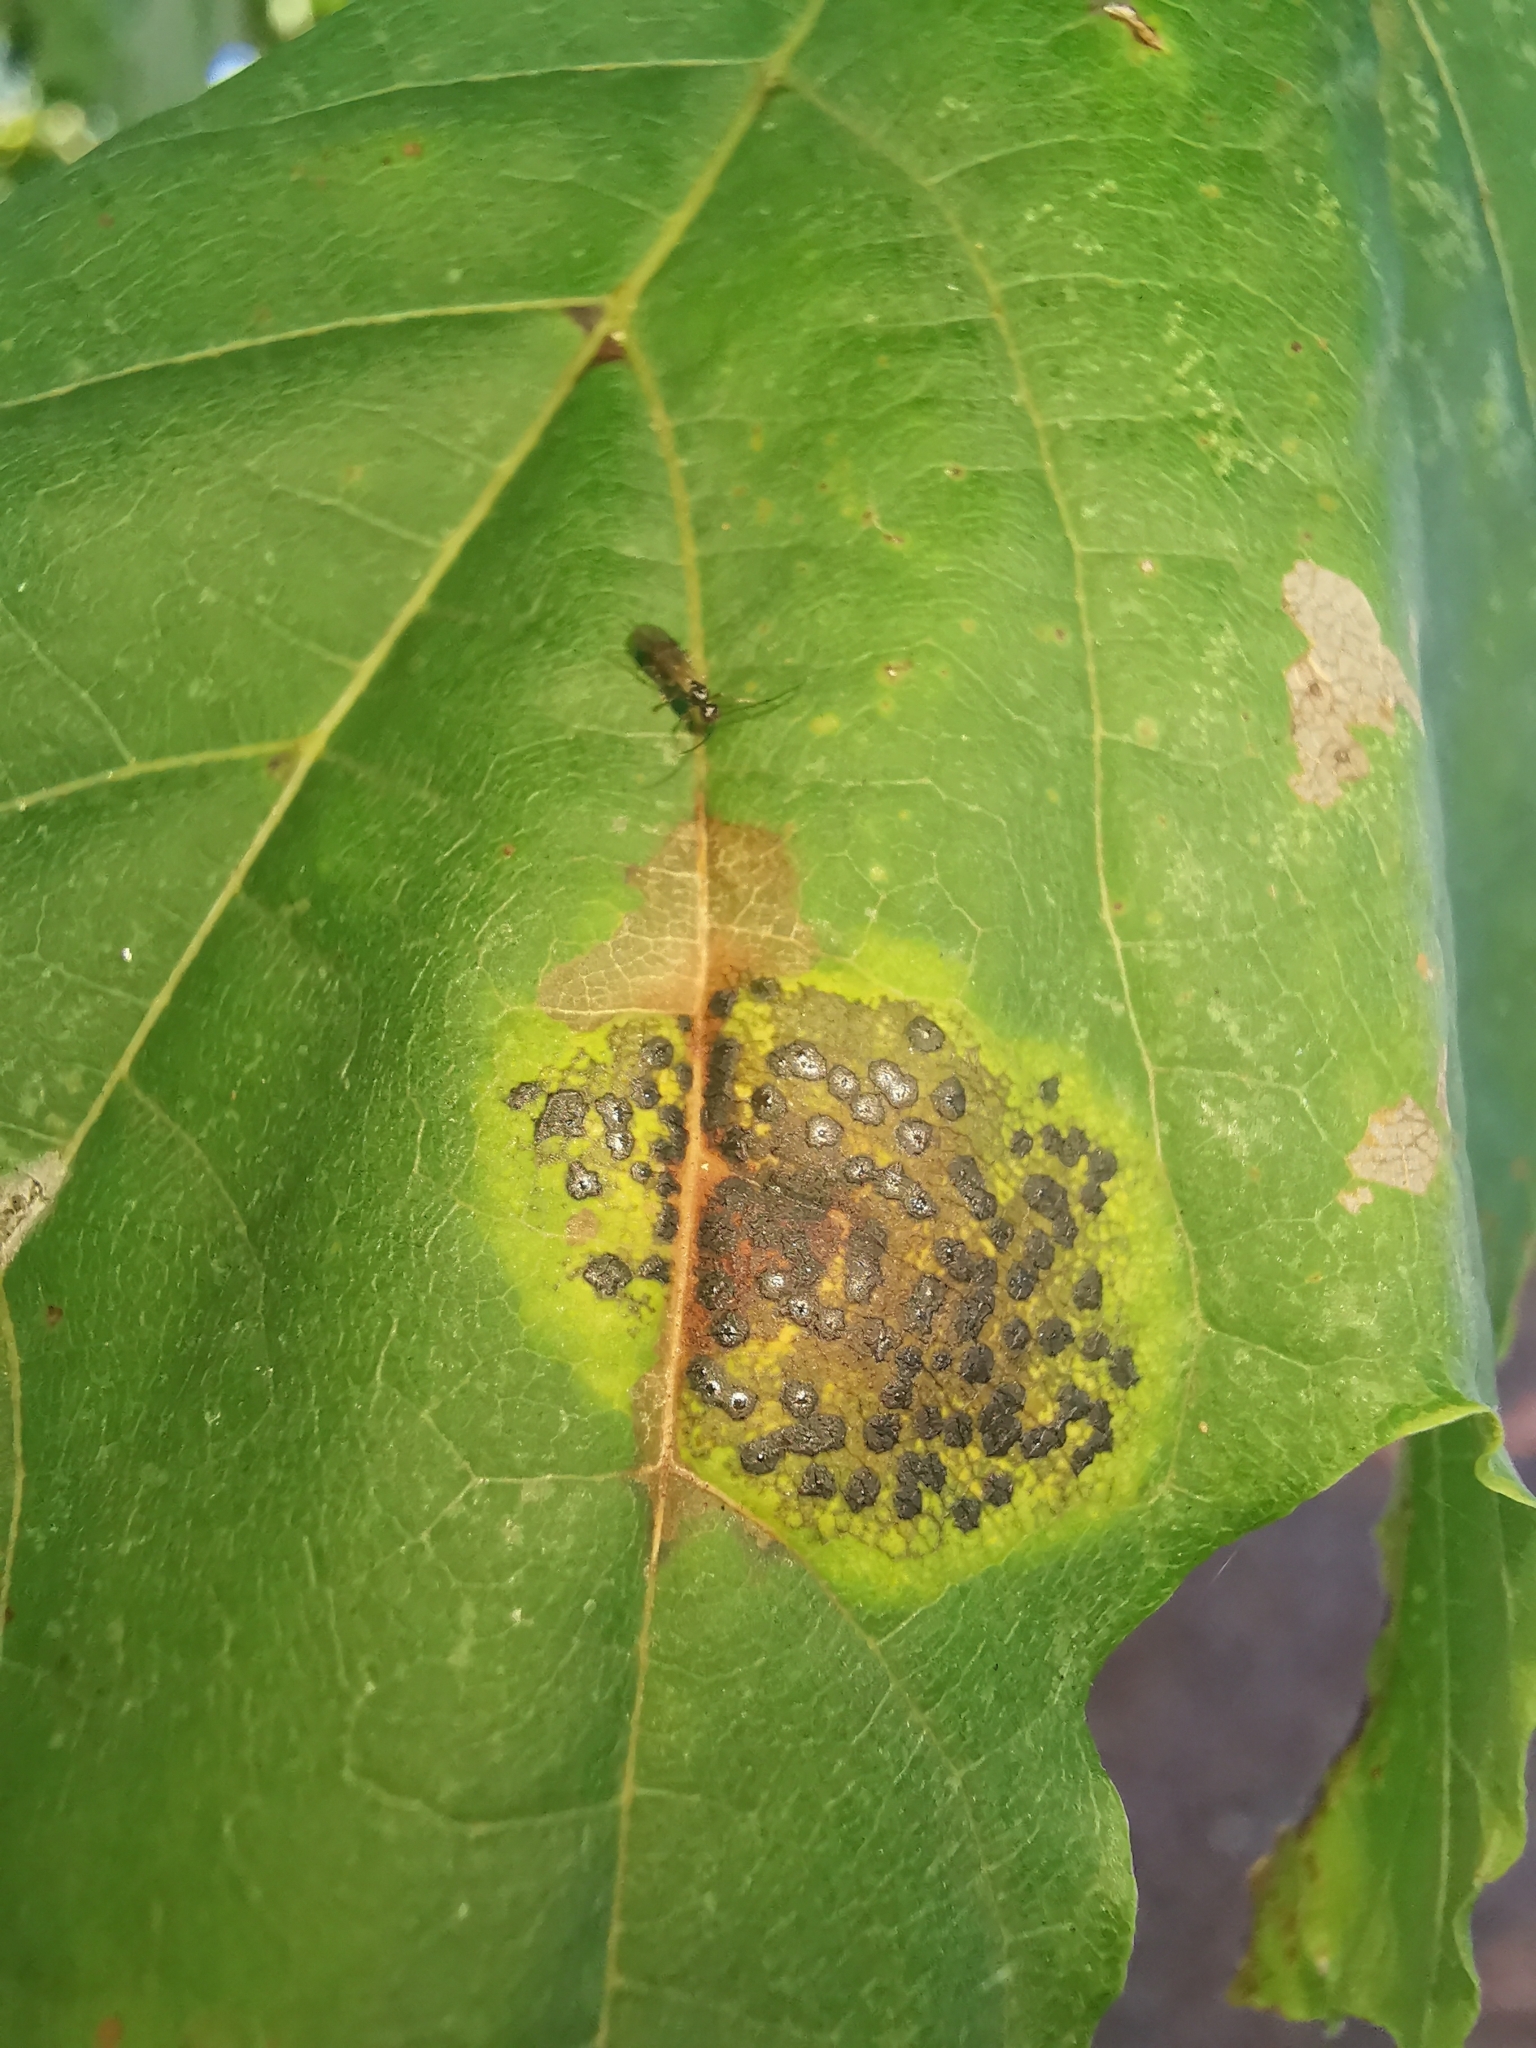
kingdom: Fungi
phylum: Ascomycota
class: Leotiomycetes
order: Rhytismatales
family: Rhytismataceae
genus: Rhytisma
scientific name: Rhytisma acerinum
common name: European tar spot
